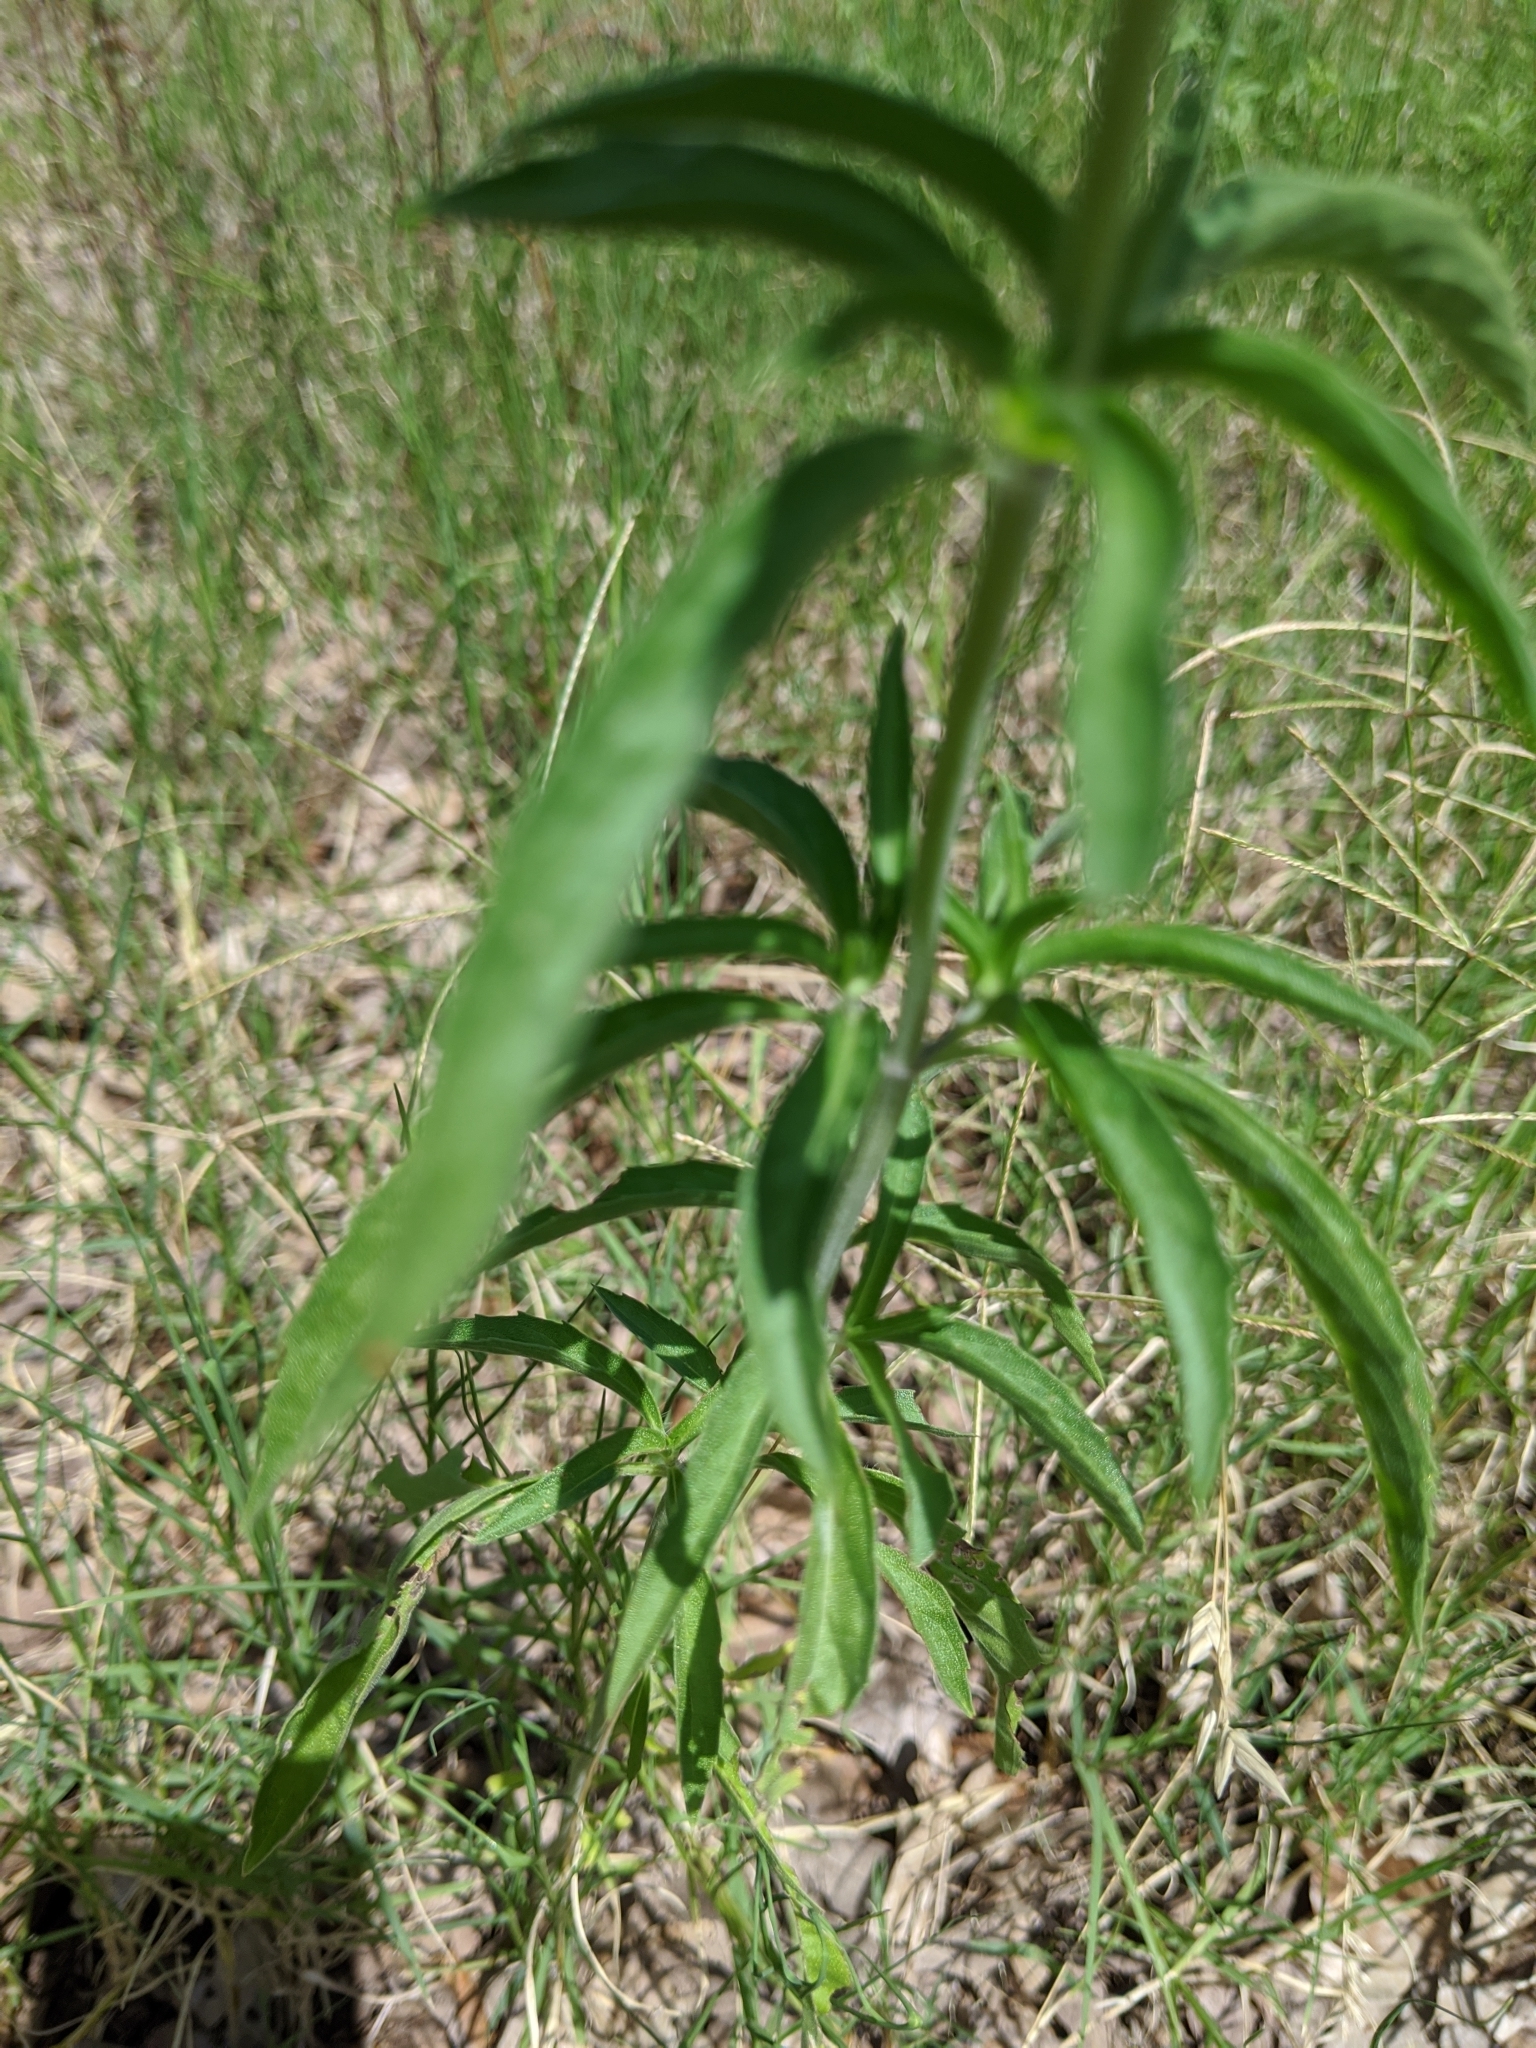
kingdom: Plantae
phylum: Tracheophyta
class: Magnoliopsida
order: Lamiales
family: Lamiaceae
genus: Monarda
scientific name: Monarda citriodora
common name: Lemon beebalm
